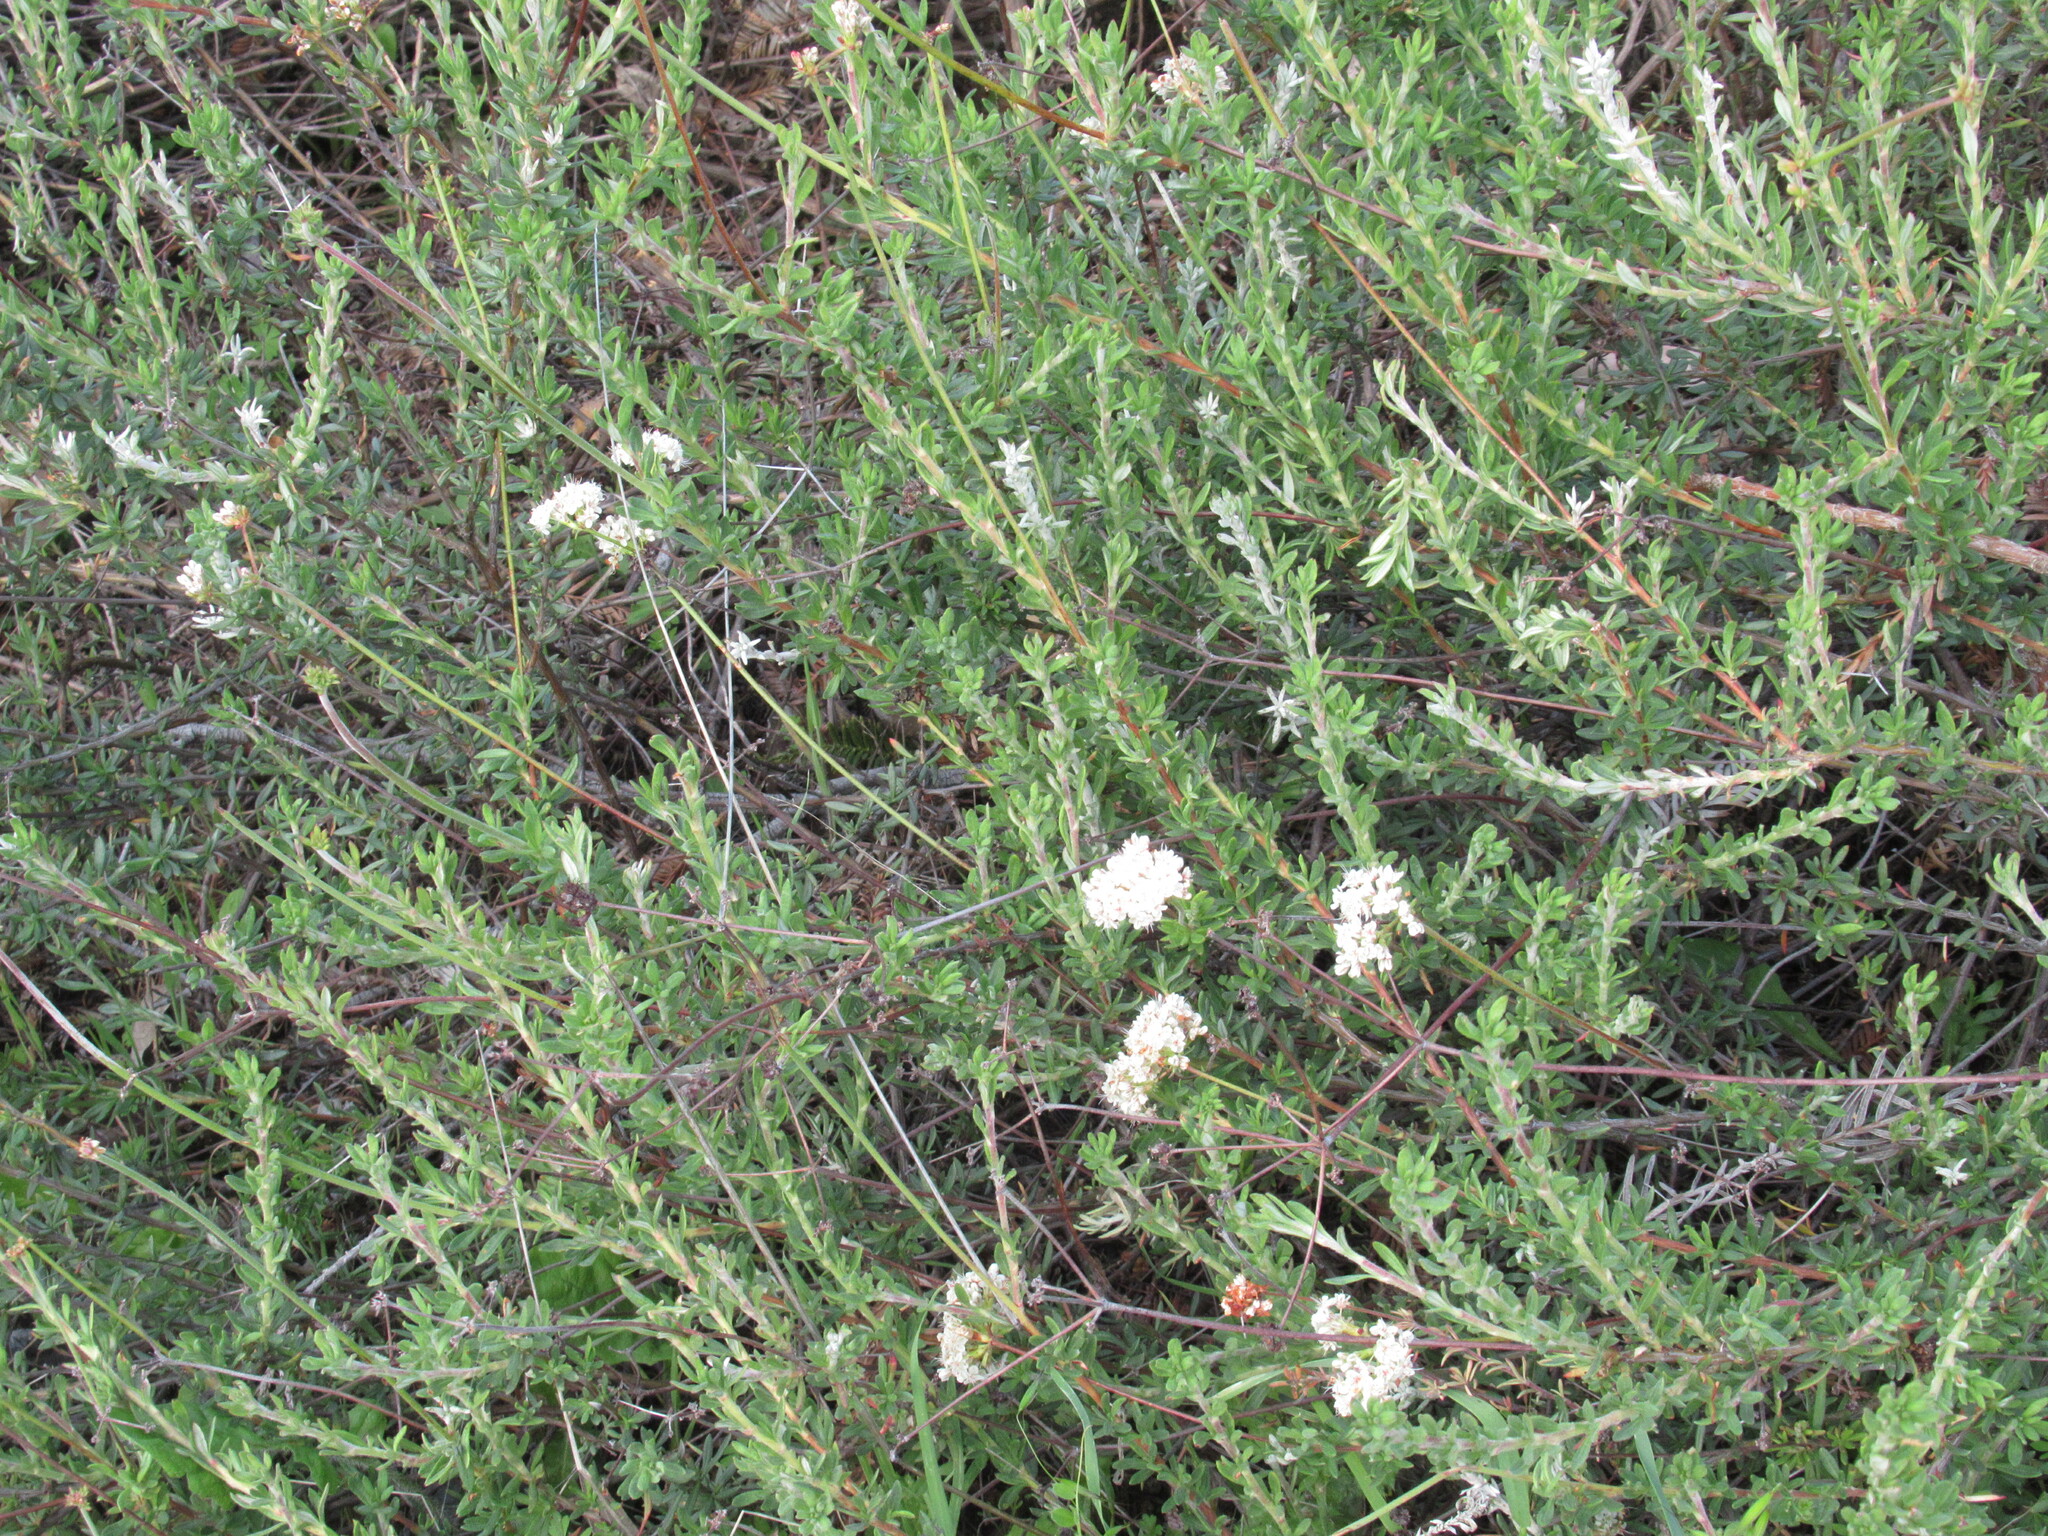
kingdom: Plantae
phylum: Tracheophyta
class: Magnoliopsida
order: Caryophyllales
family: Polygonaceae
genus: Eriogonum
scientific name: Eriogonum fasciculatum
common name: California wild buckwheat
